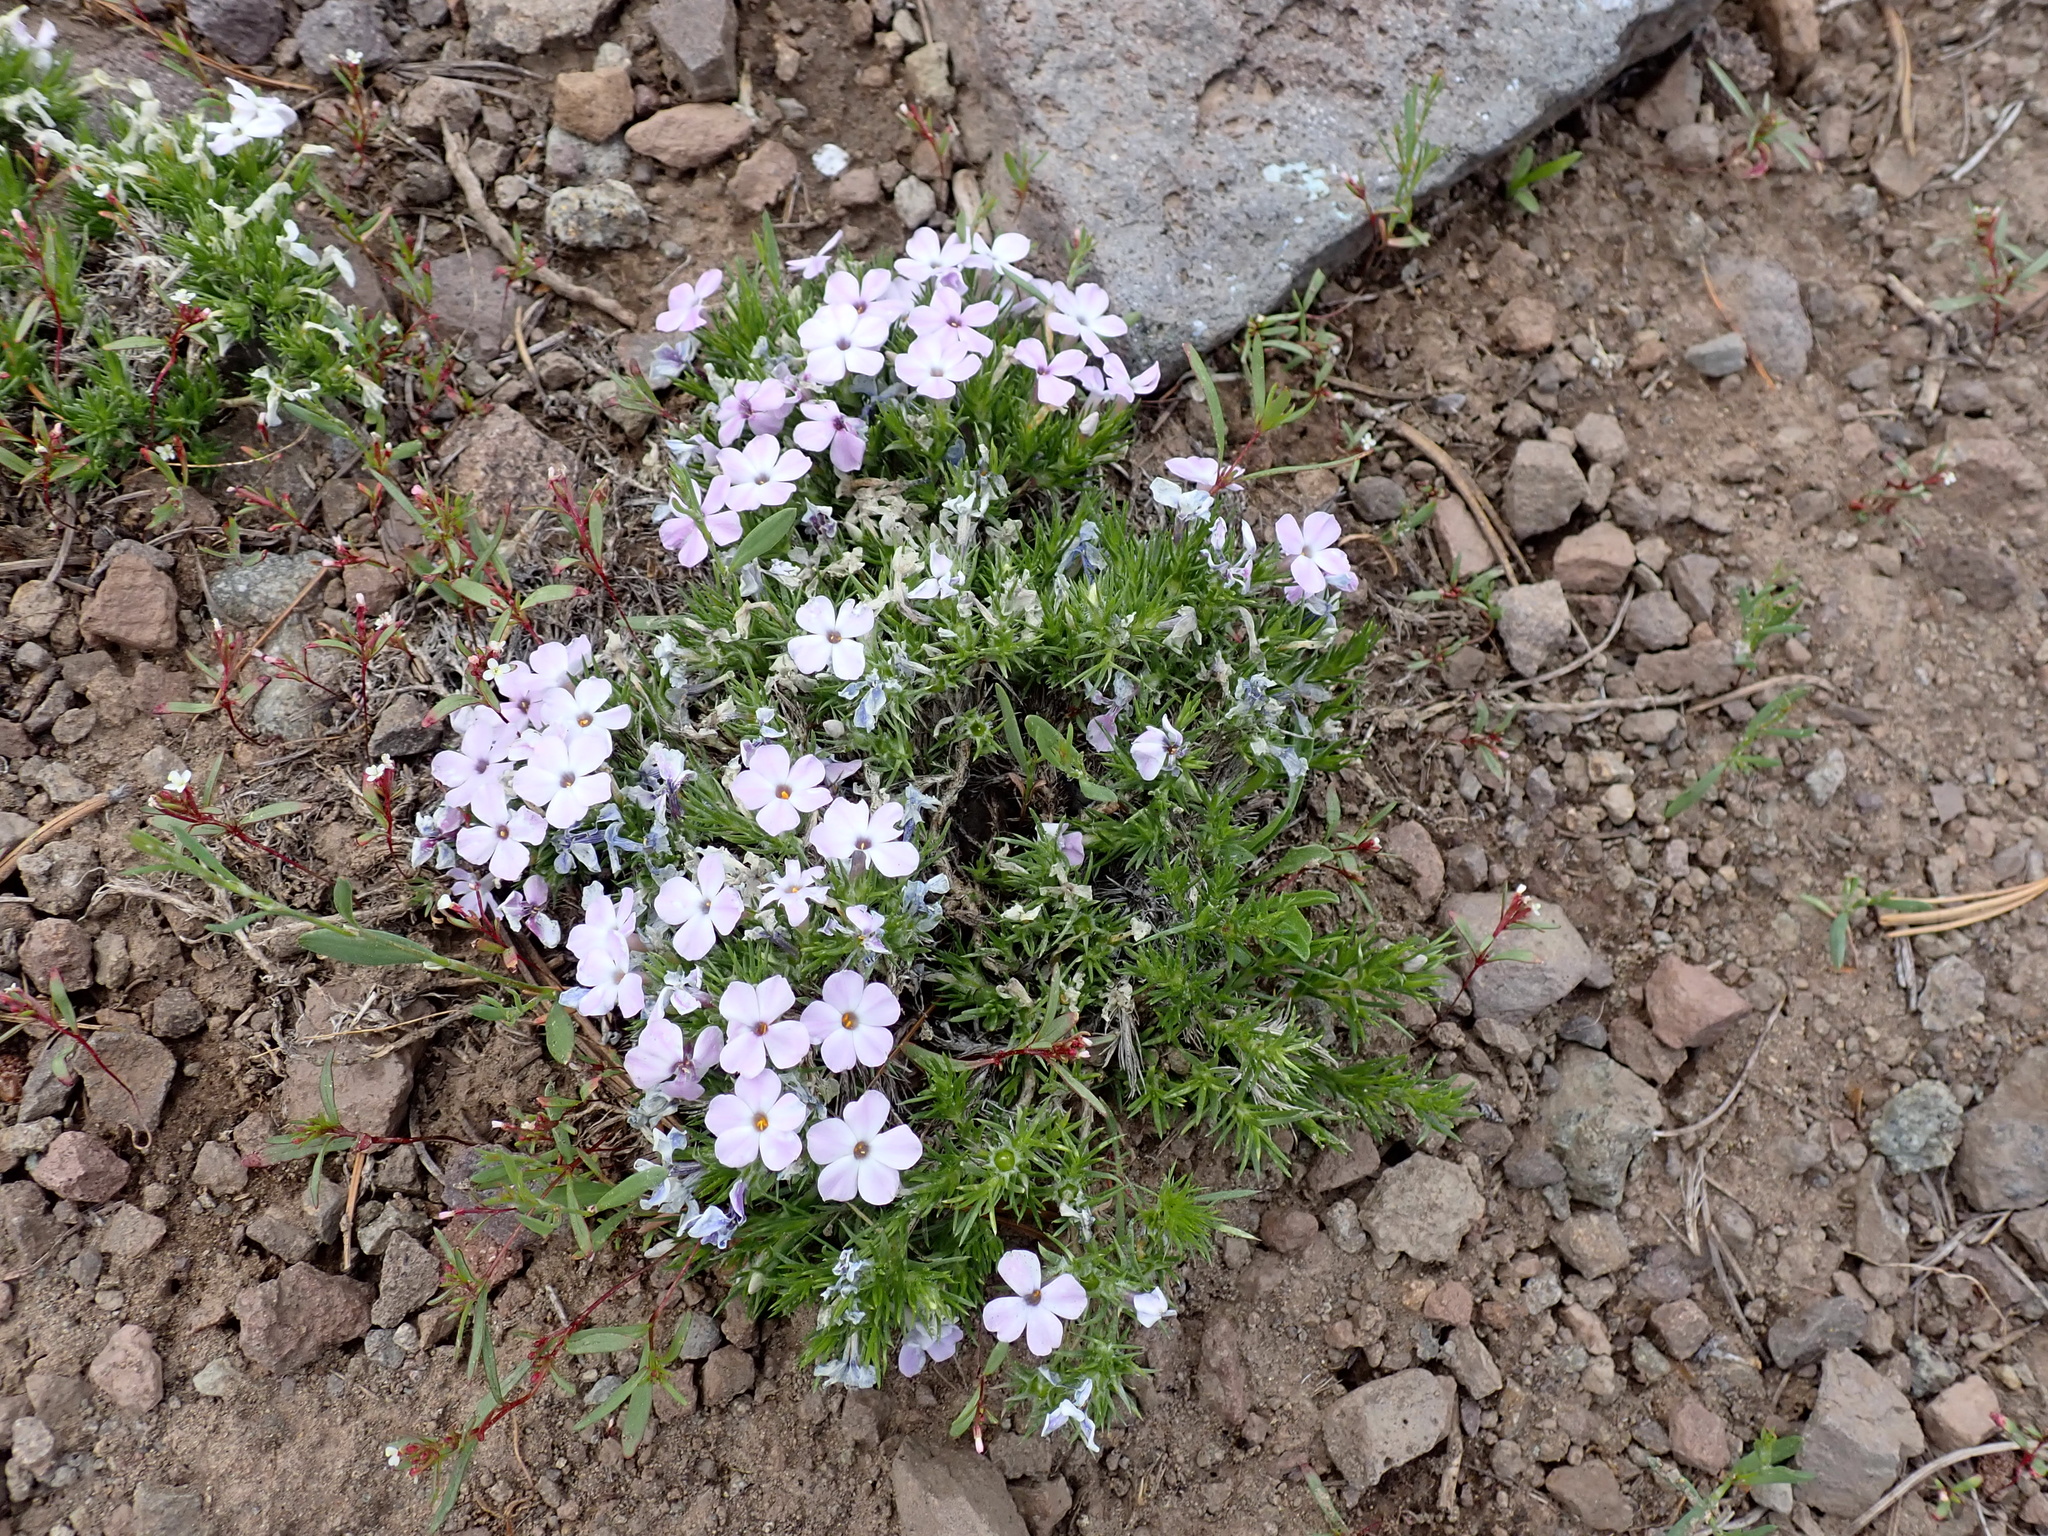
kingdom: Plantae
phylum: Tracheophyta
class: Magnoliopsida
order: Ericales
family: Polemoniaceae
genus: Phlox
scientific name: Phlox diffusa
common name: Mat phlox
